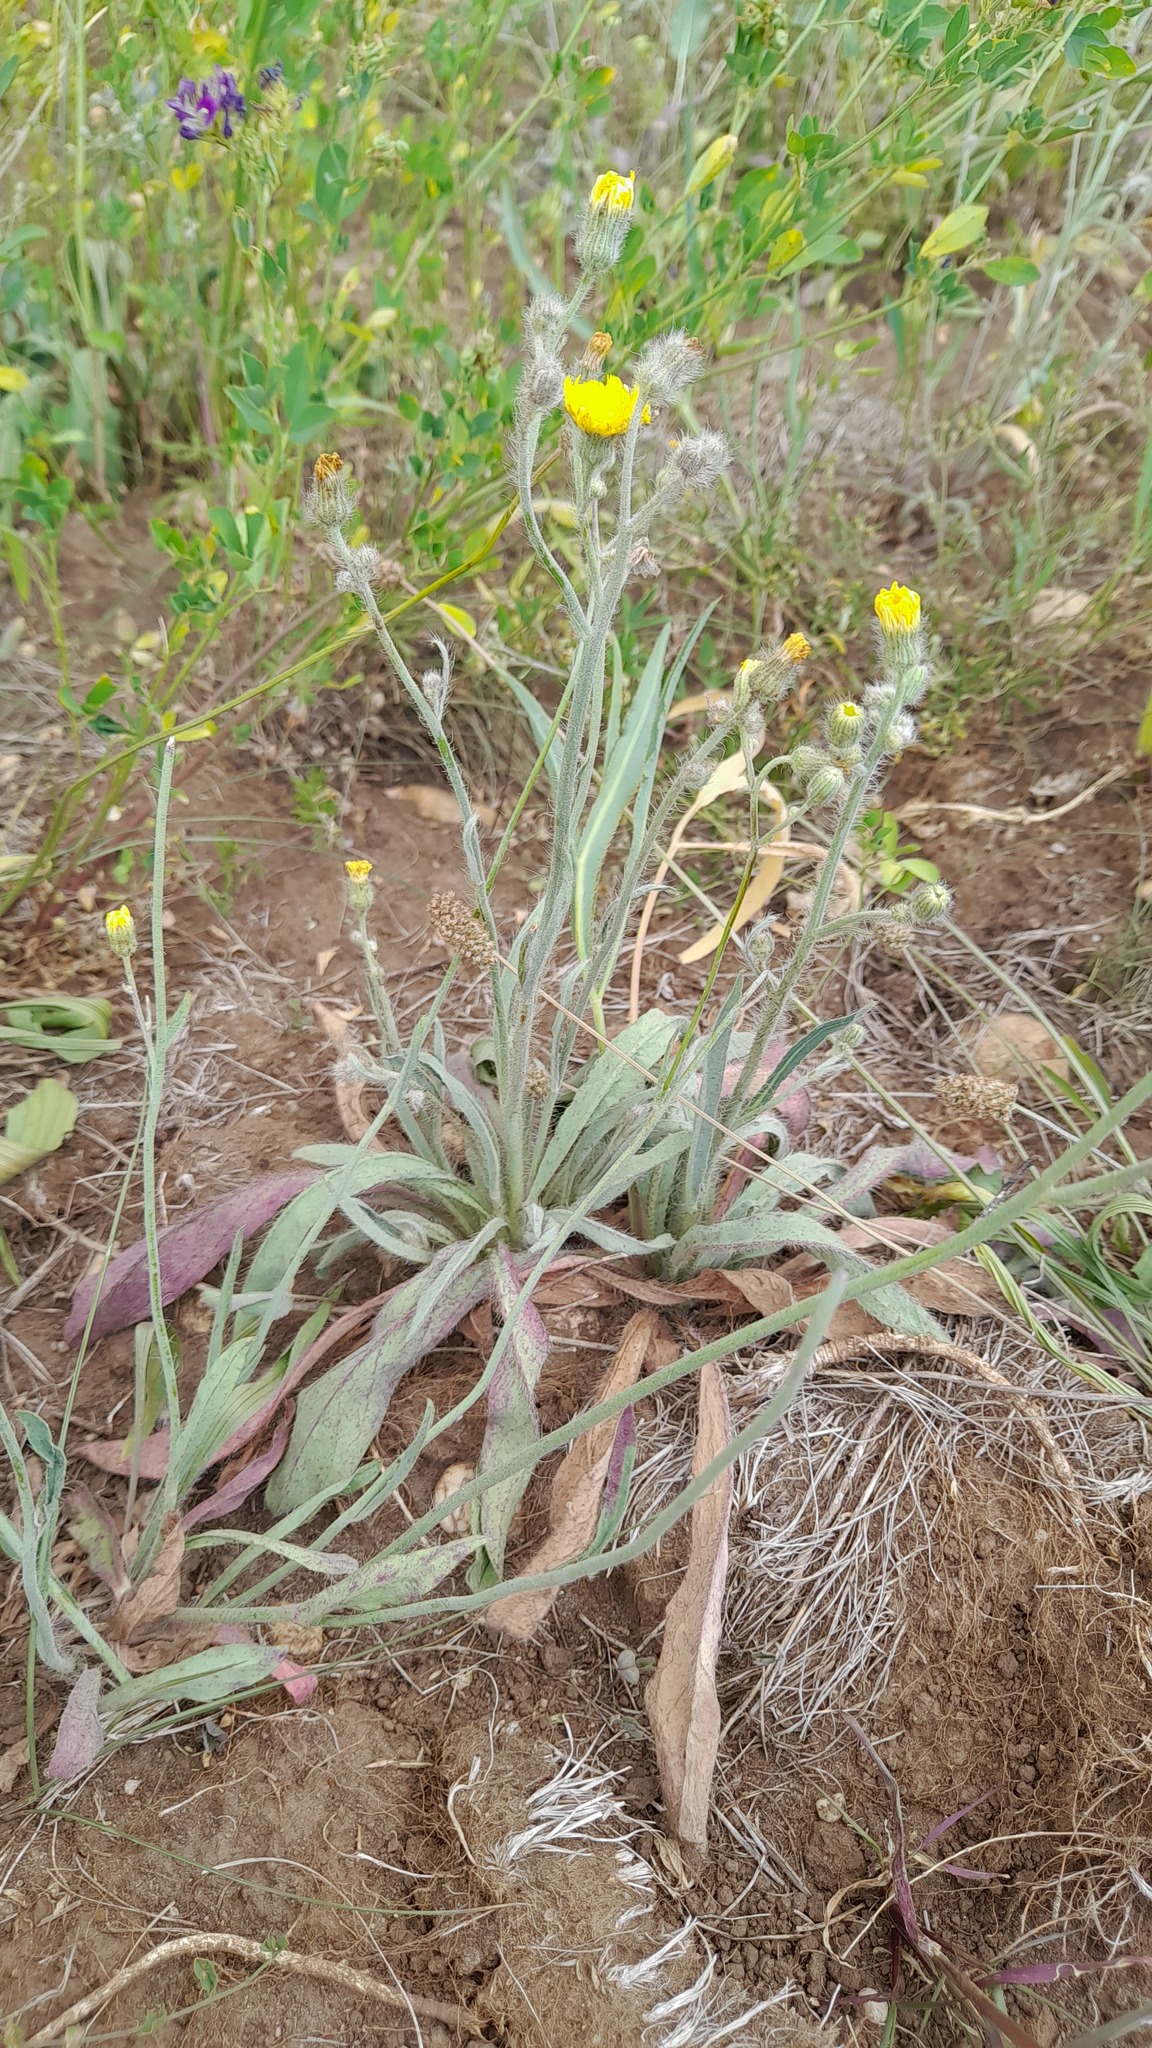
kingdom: Plantae
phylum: Tracheophyta
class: Magnoliopsida
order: Asterales
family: Asteraceae
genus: Pilosella
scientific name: Pilosella rothiana
